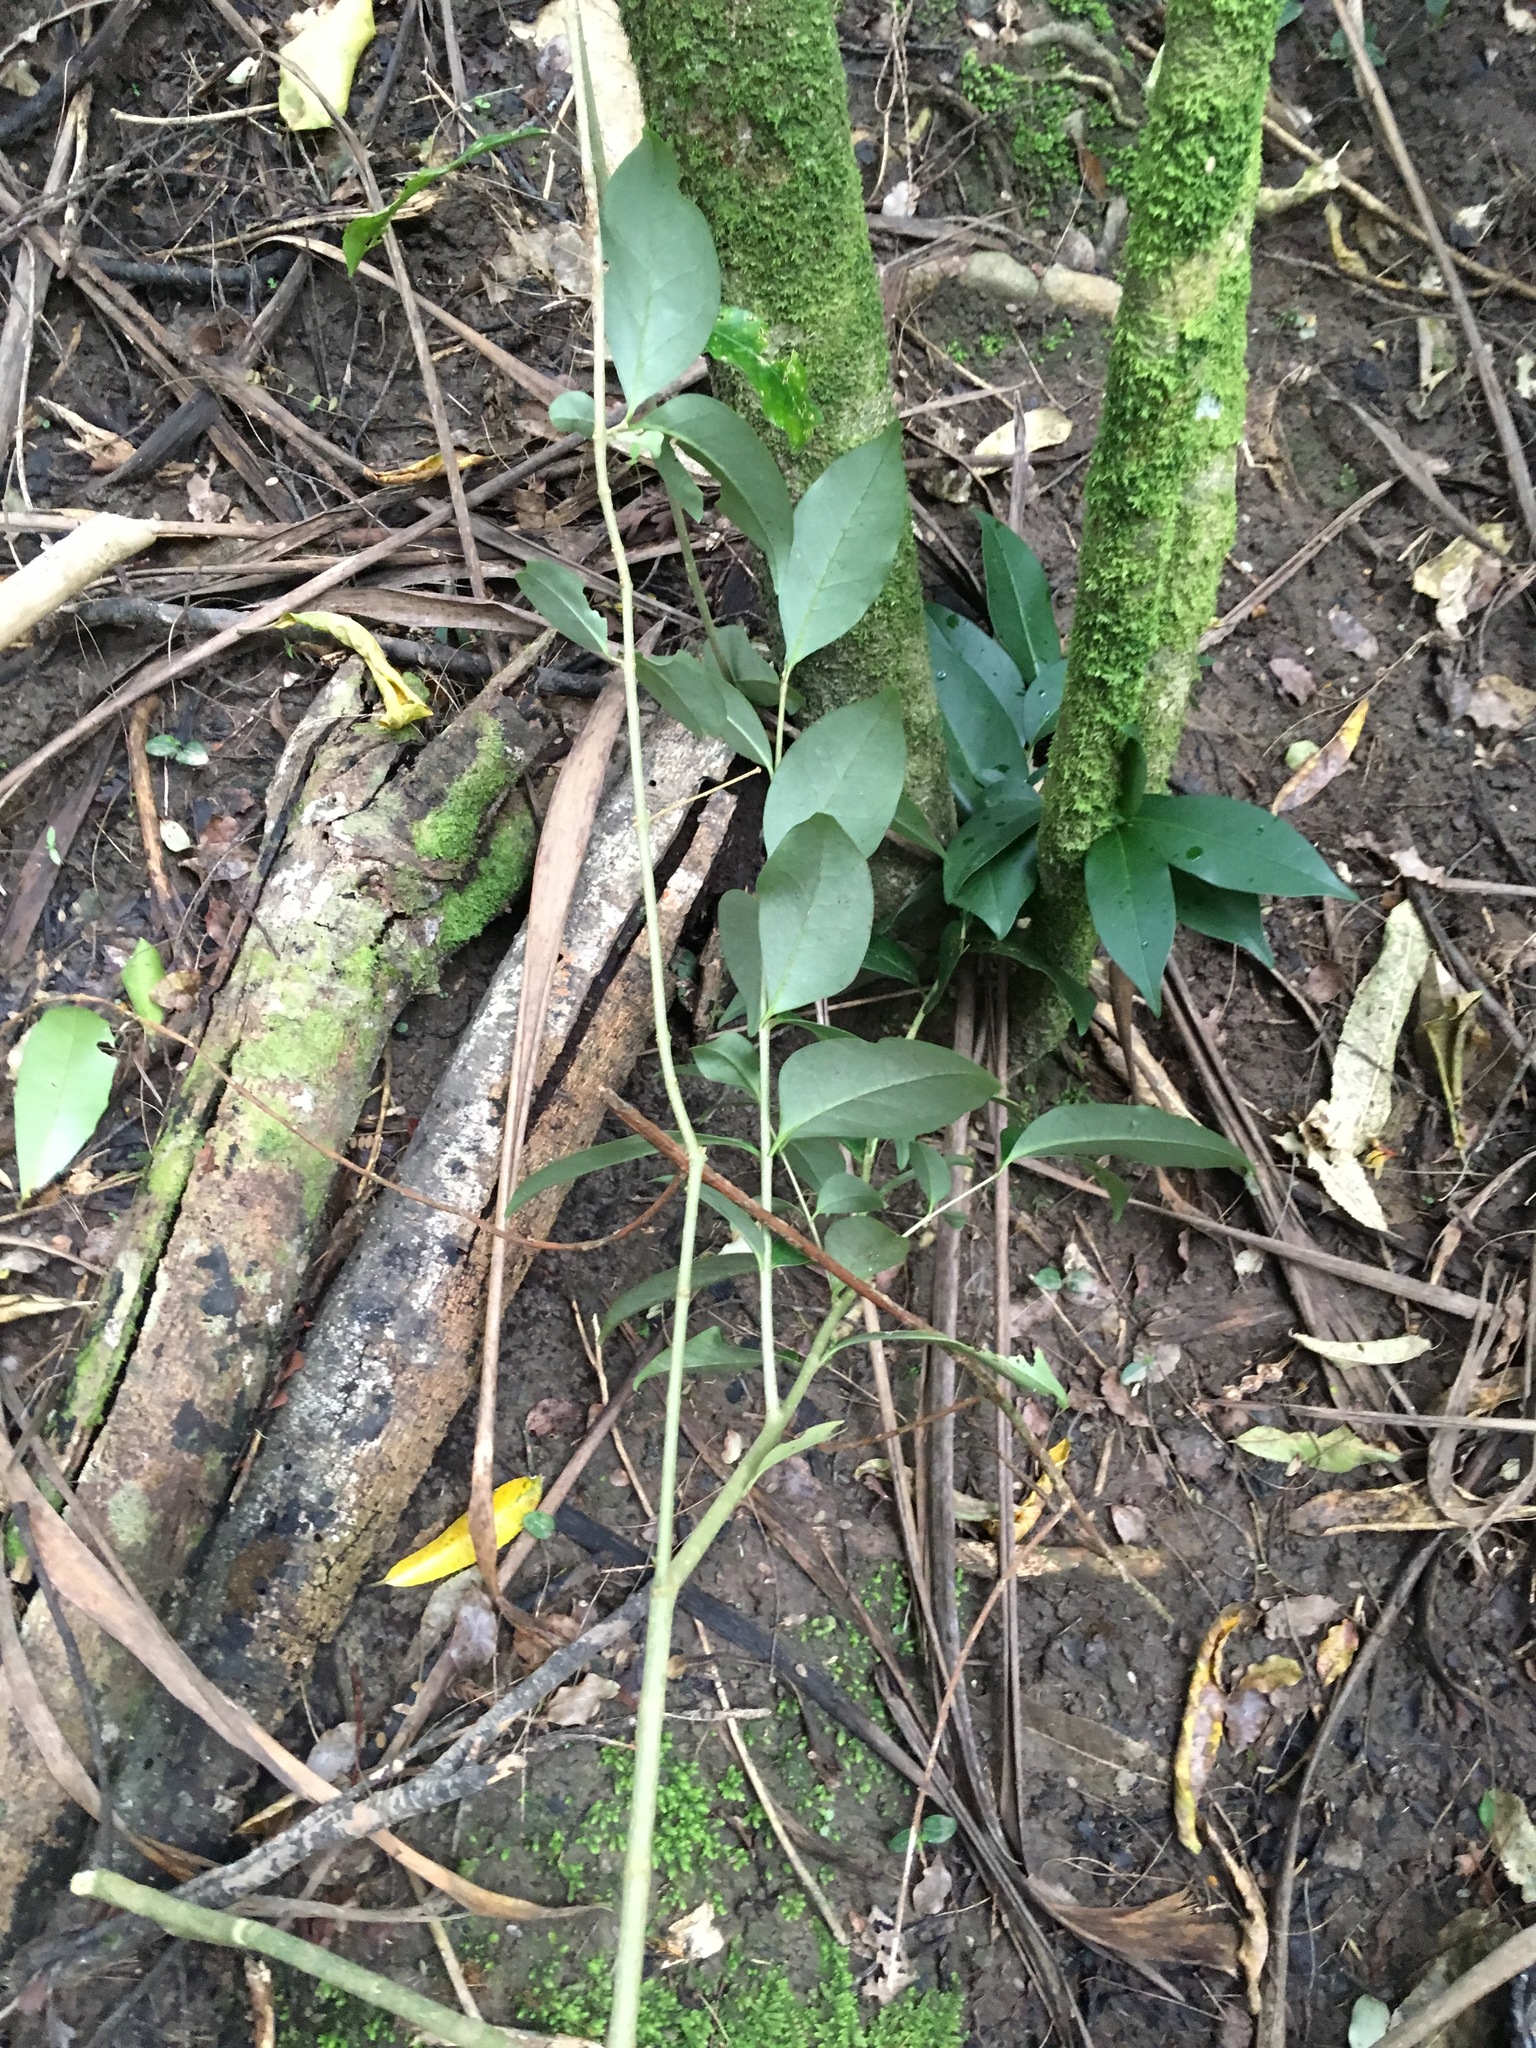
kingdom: Plantae
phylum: Tracheophyta
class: Magnoliopsida
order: Lamiales
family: Oleaceae
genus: Ligustrum
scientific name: Ligustrum lucidum
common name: Glossy privet
